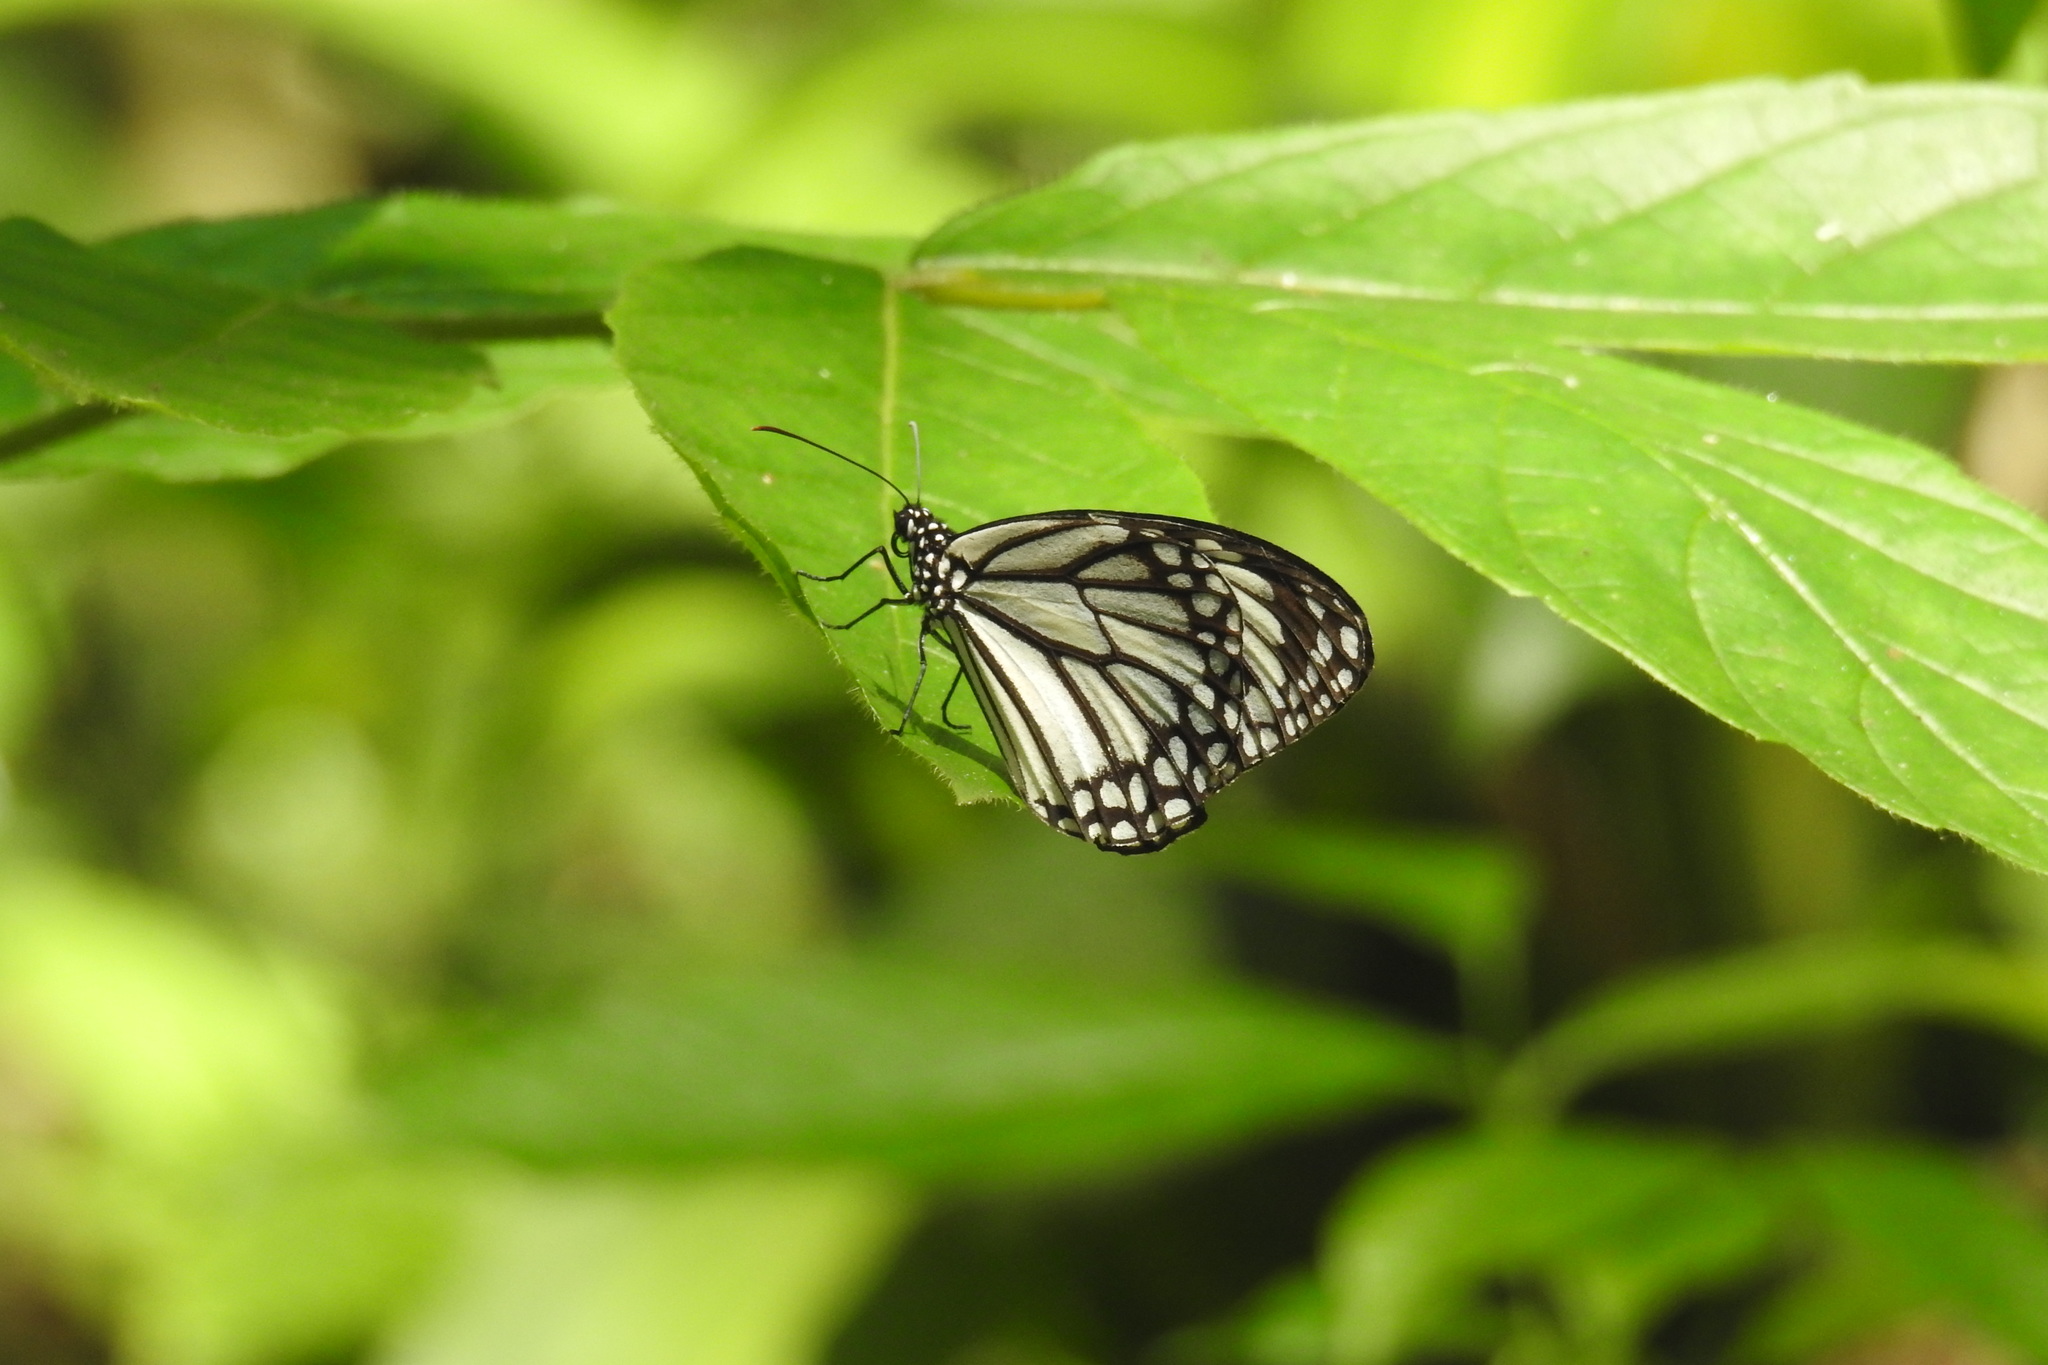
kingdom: Animalia
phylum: Arthropoda
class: Insecta
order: Lepidoptera
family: Nymphalidae
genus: Danaus
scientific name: Danaus melanippus
